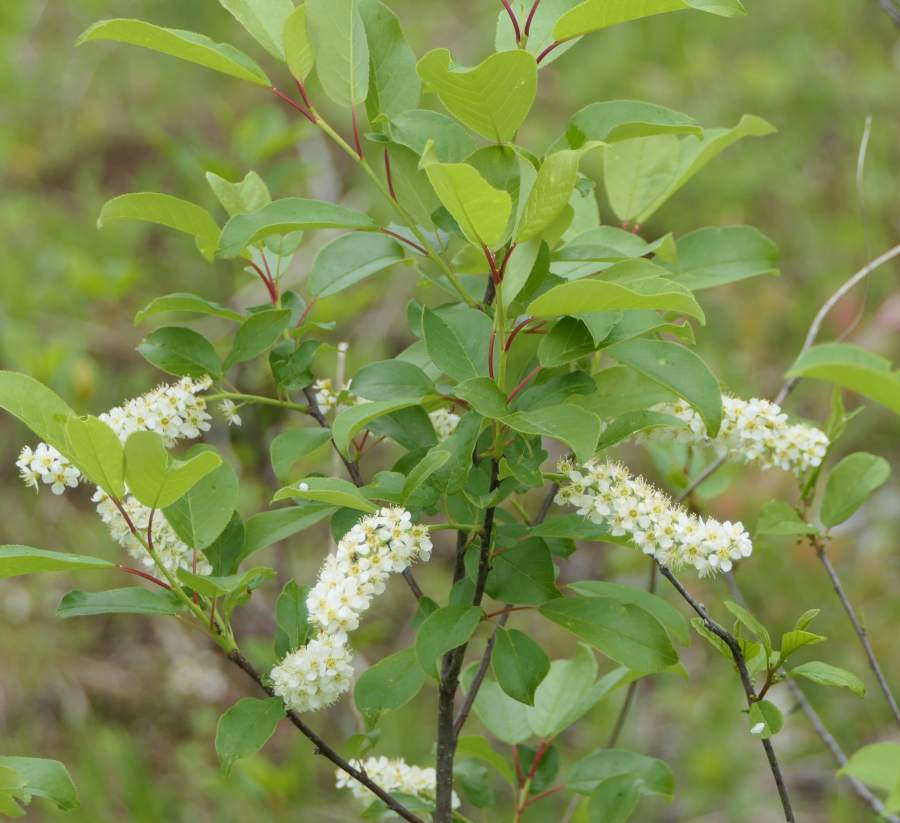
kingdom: Plantae
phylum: Tracheophyta
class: Magnoliopsida
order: Rosales
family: Rosaceae
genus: Prunus
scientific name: Prunus virginiana
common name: Chokecherry
